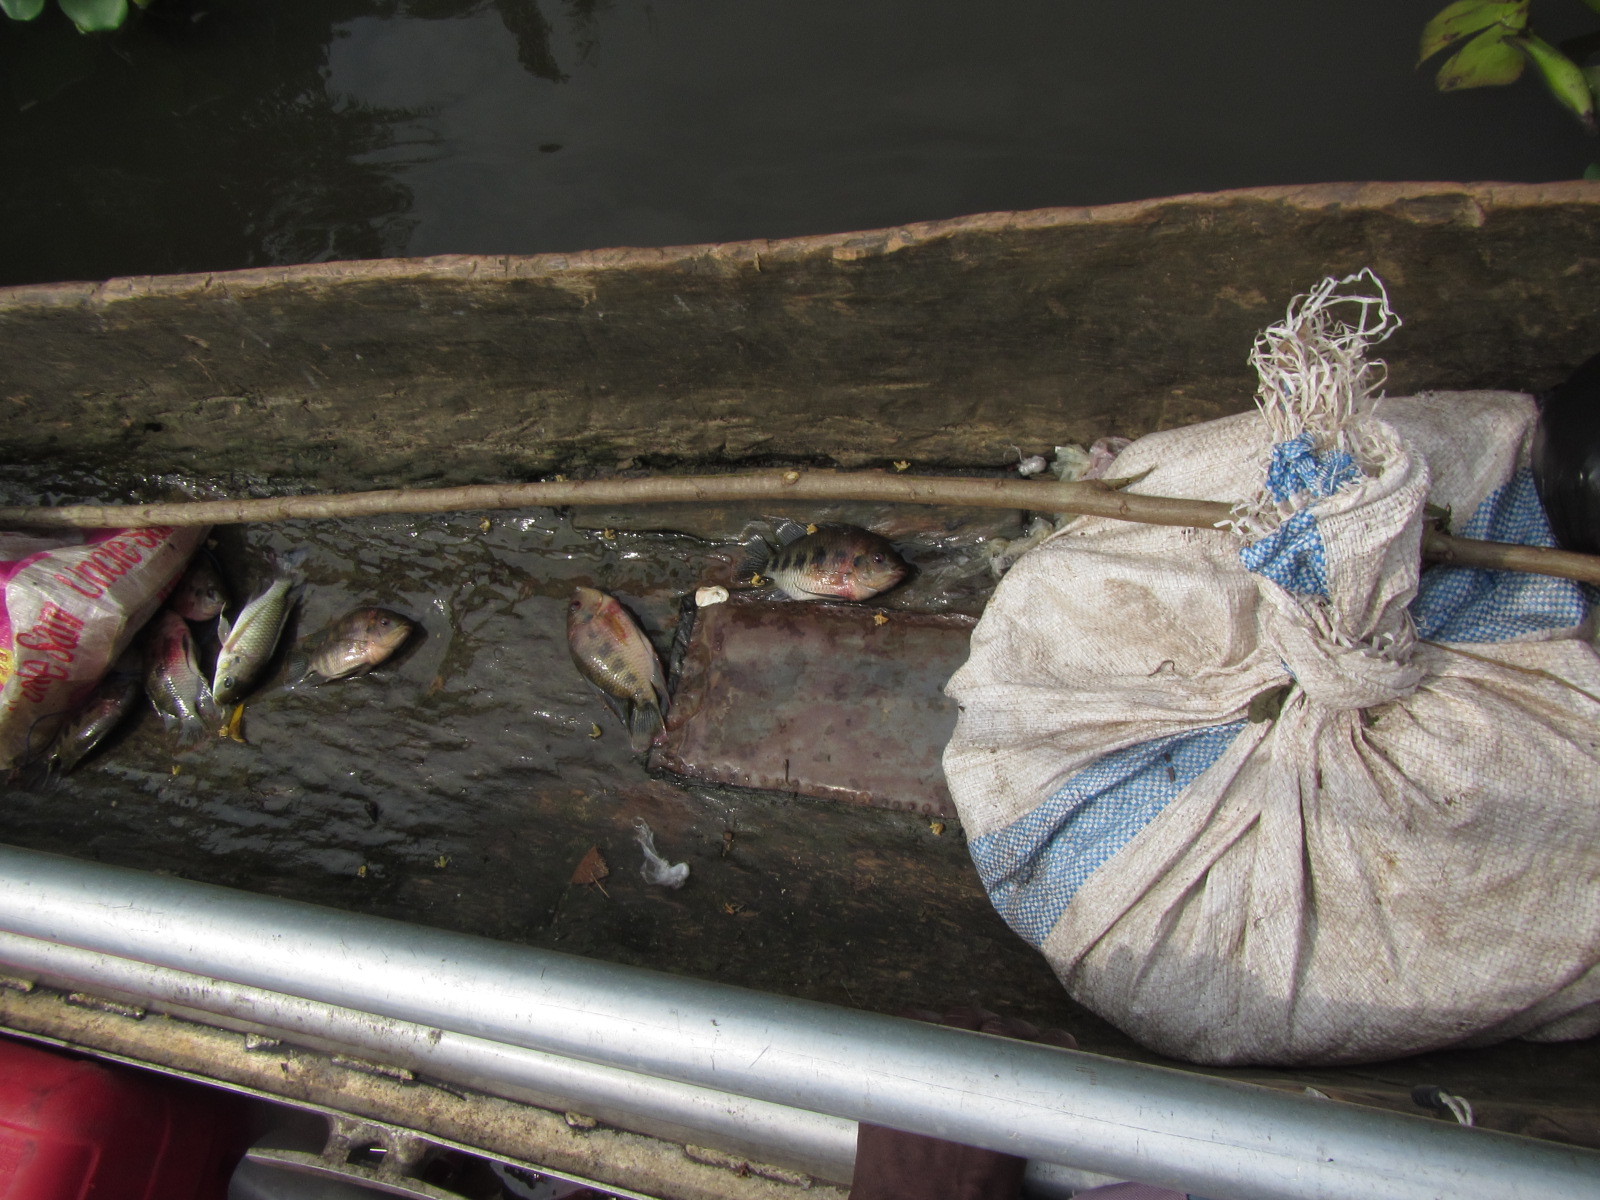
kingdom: Animalia
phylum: Chordata
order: Perciformes
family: Cichlidae
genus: Pelmatolapia
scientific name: Pelmatolapia mariae
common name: Spotted tilapia
